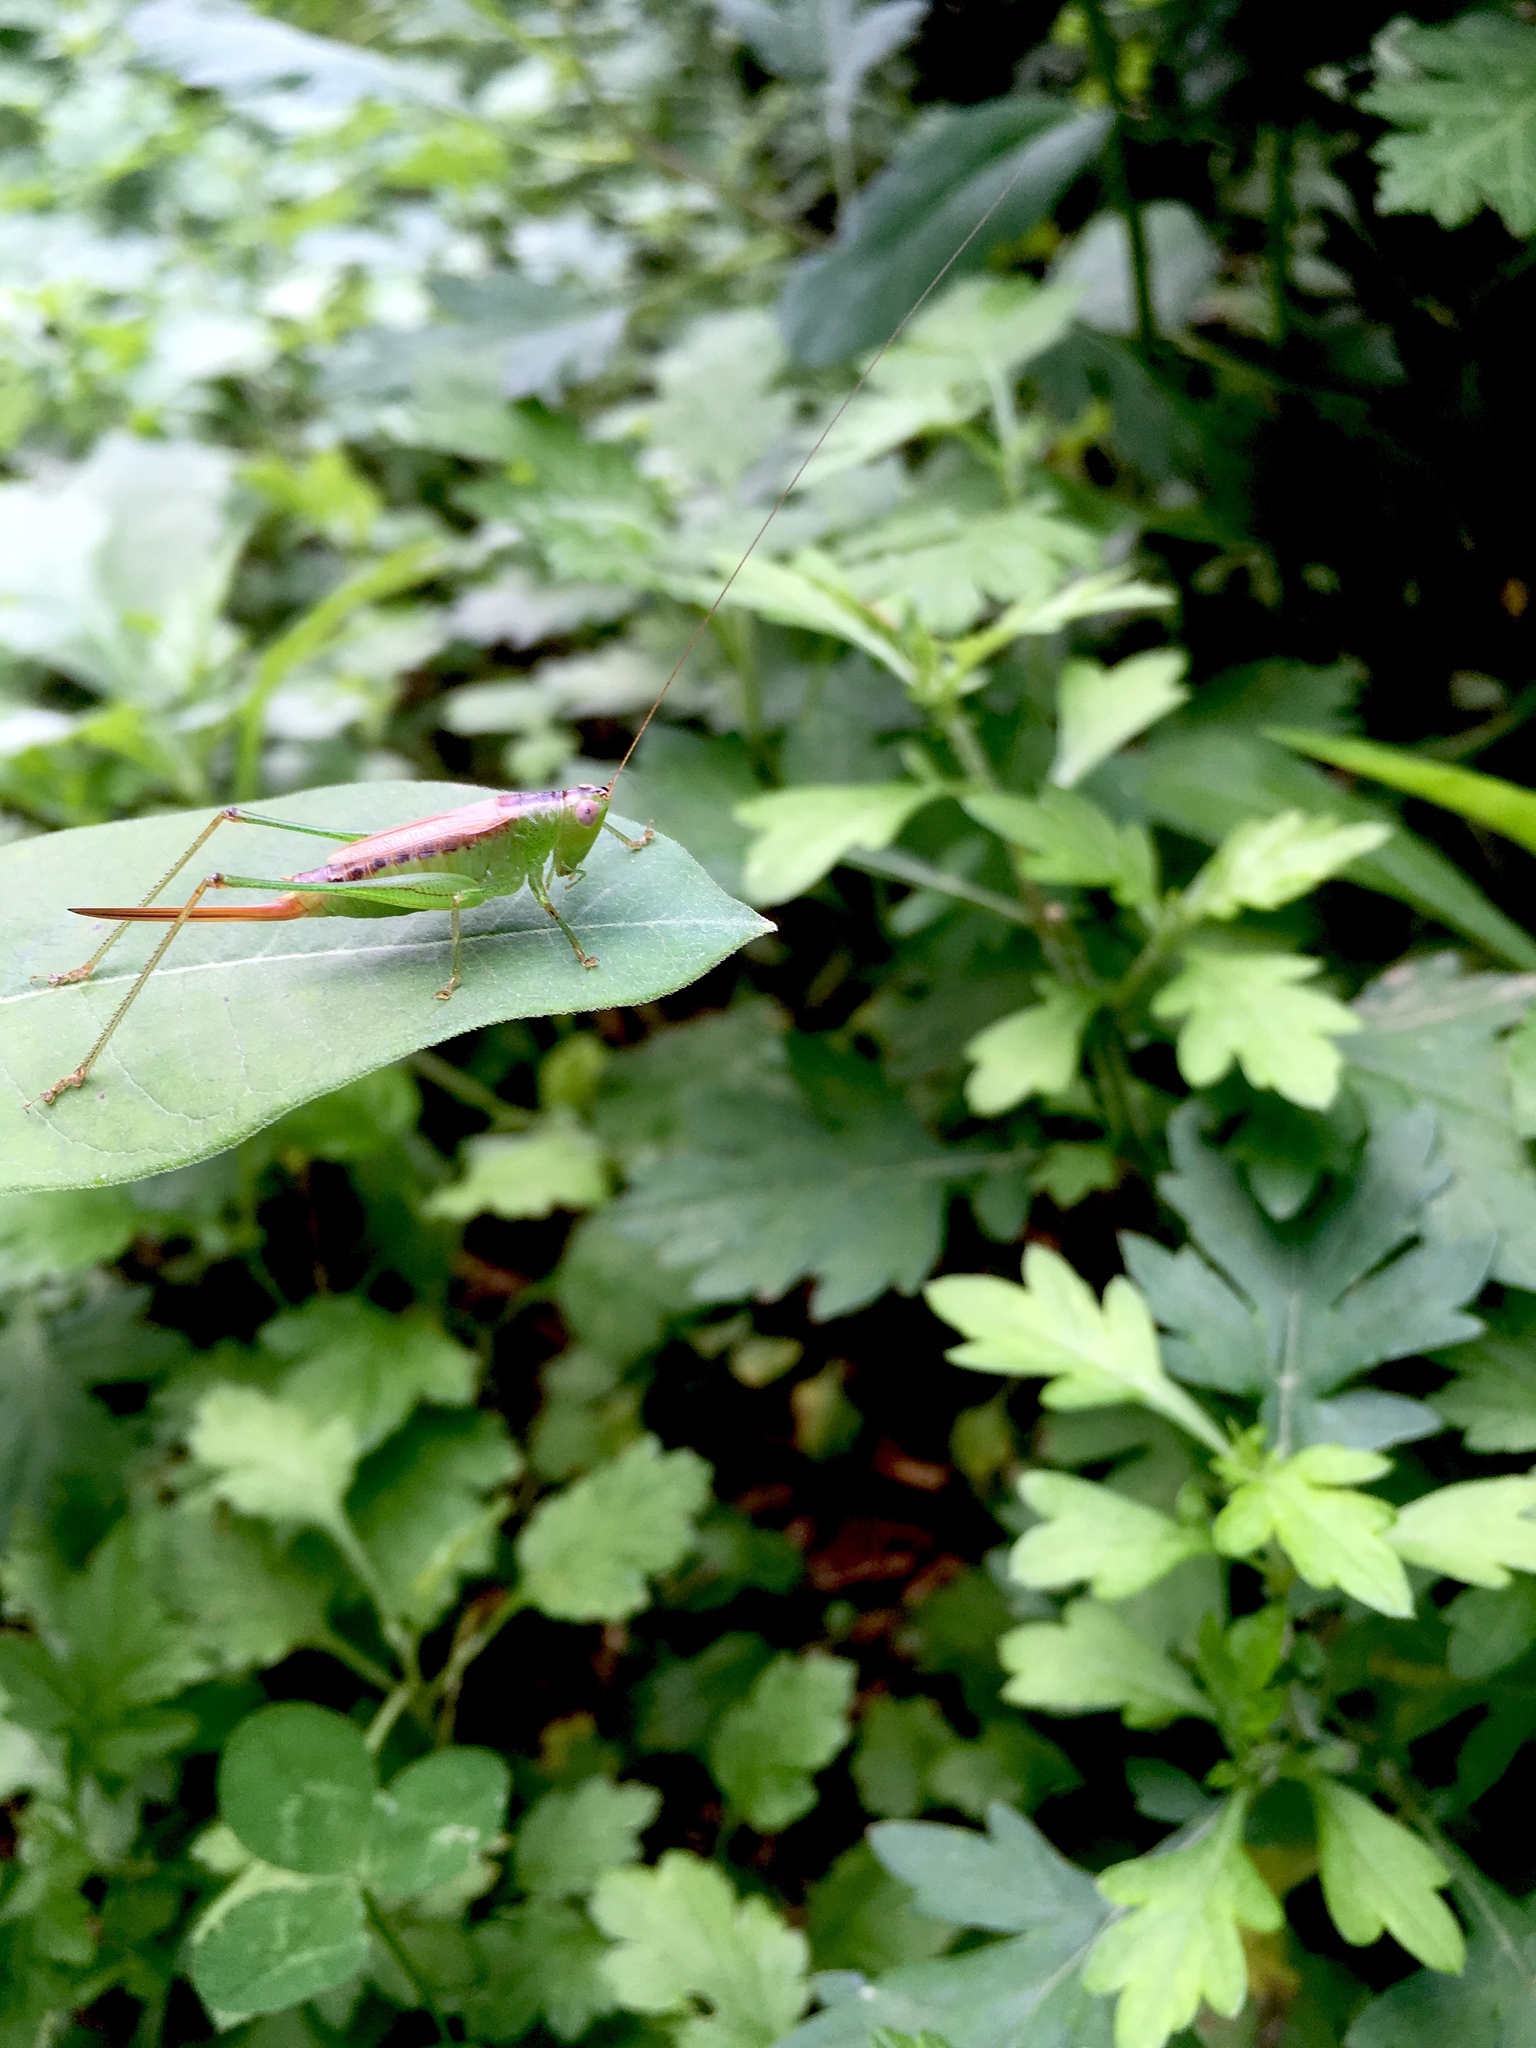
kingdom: Animalia
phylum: Arthropoda
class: Insecta
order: Orthoptera
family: Tettigoniidae
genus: Conocephalus
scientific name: Conocephalus brevipennis
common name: Short-winged meadow katydid
